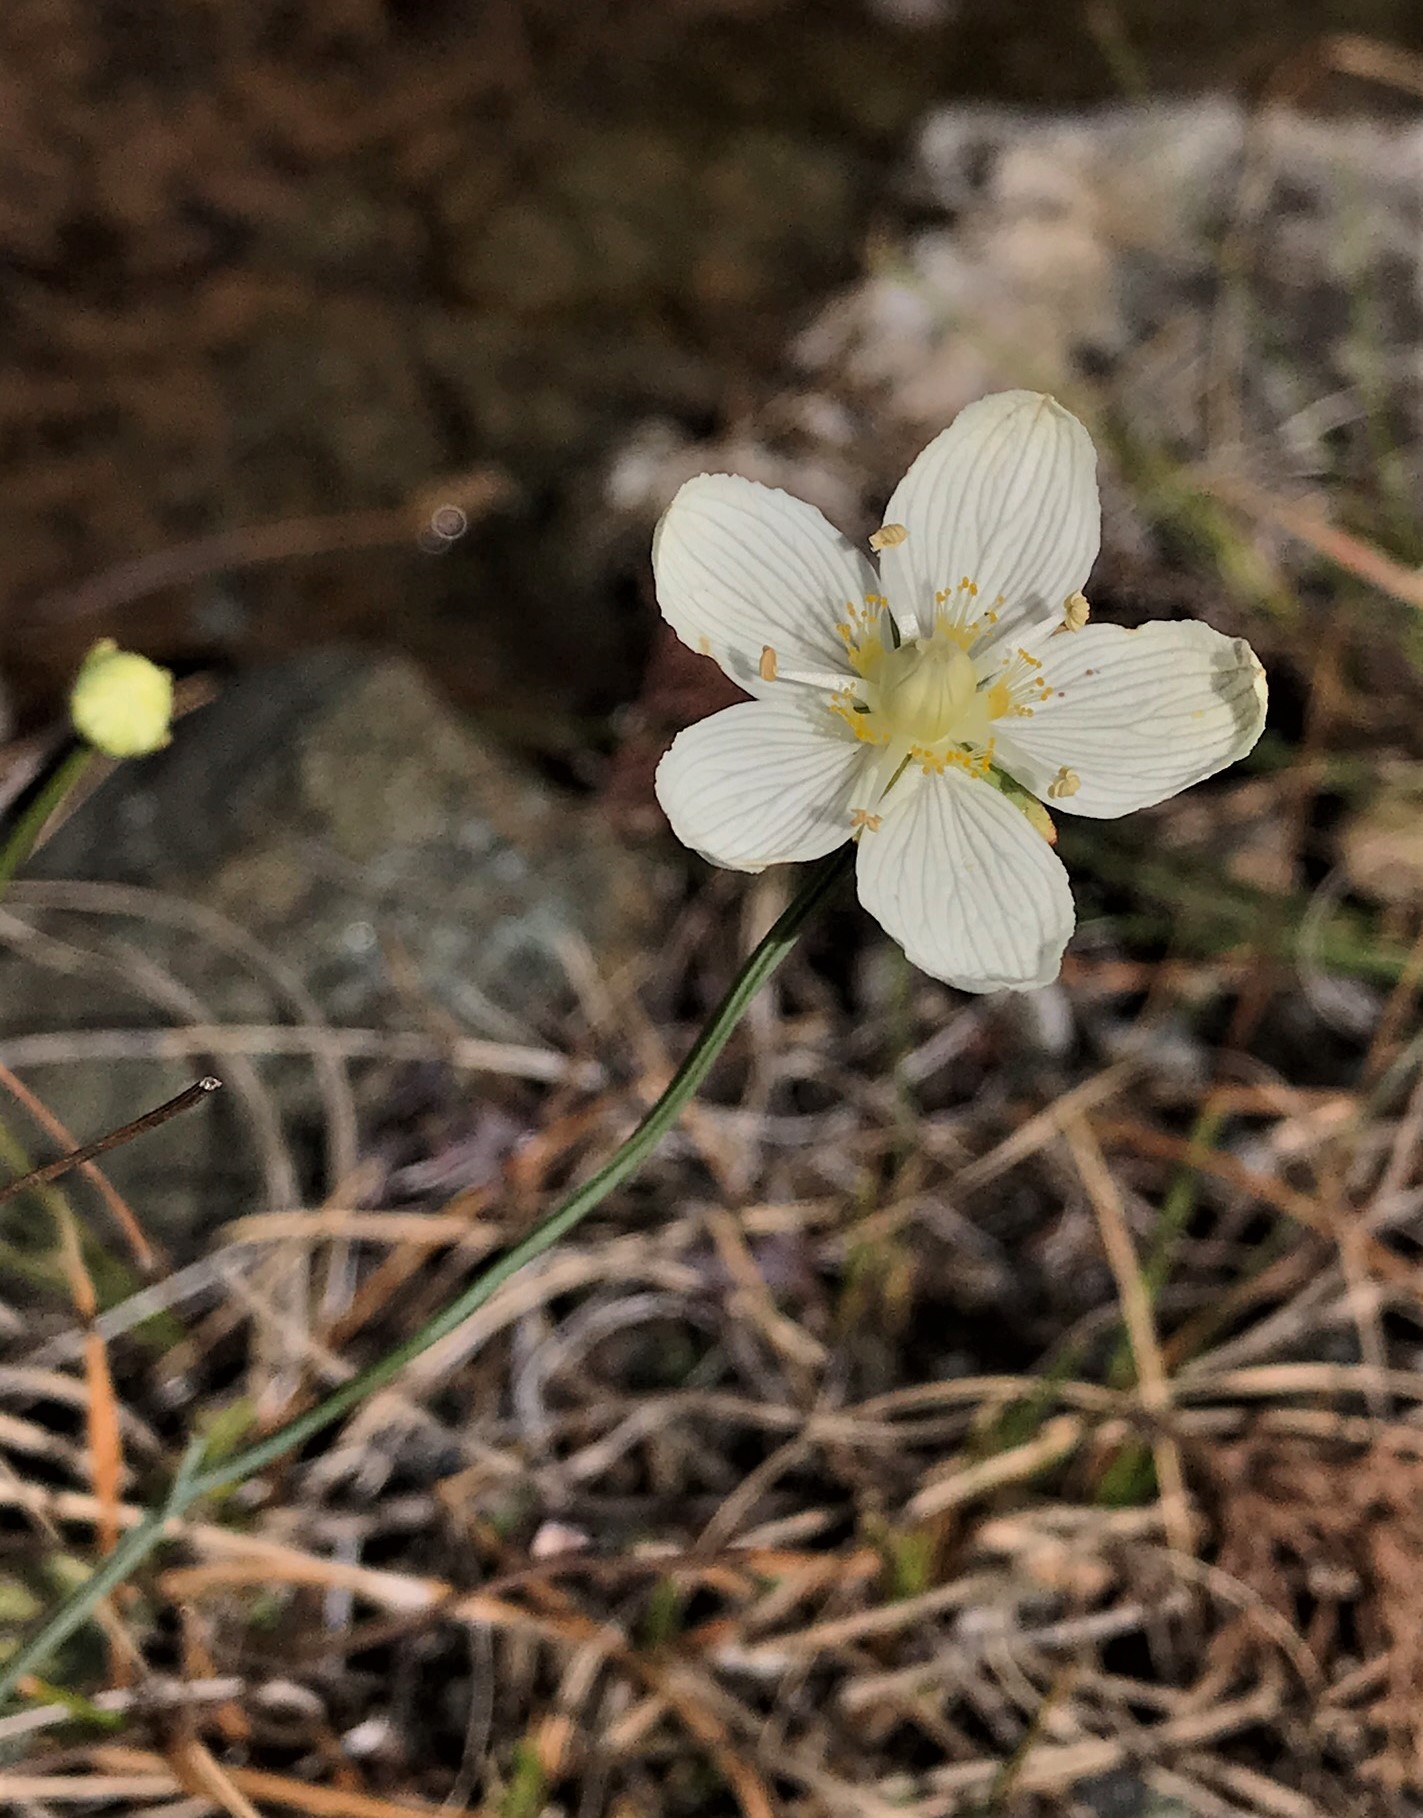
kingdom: Plantae
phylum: Tracheophyta
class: Magnoliopsida
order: Celastrales
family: Parnassiaceae
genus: Parnassia
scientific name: Parnassia palustris
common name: Grass-of-parnassus
